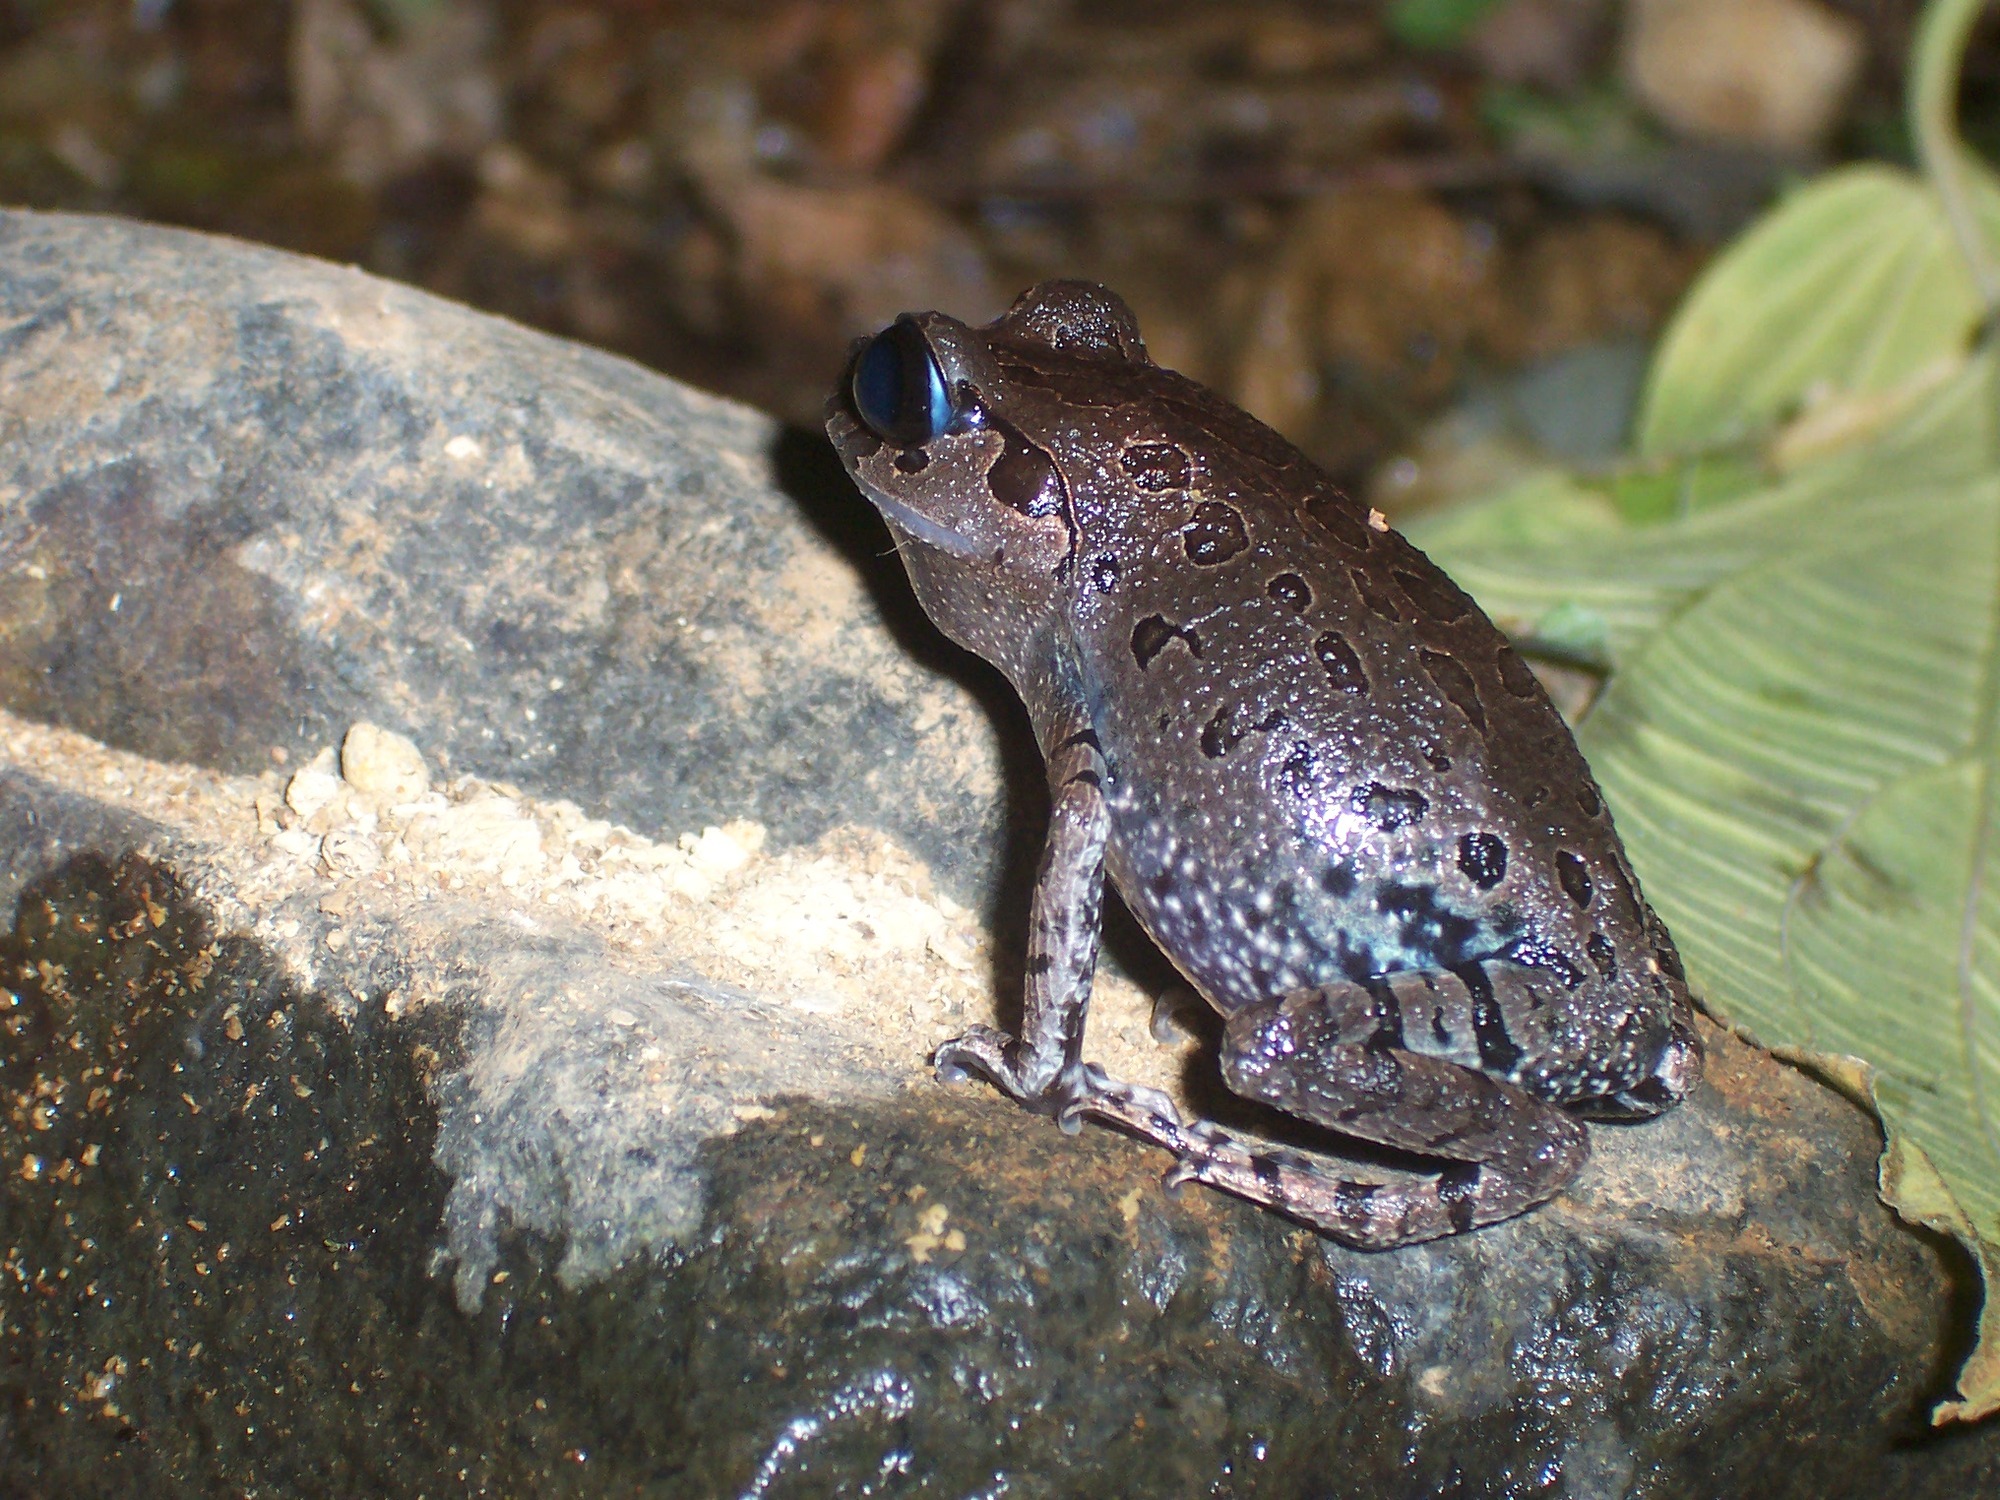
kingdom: Animalia
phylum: Chordata
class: Amphibia
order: Anura
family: Megophryidae
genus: Leptobrachium
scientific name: Leptobrachium hasseltii
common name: Hasselt's litter frog
